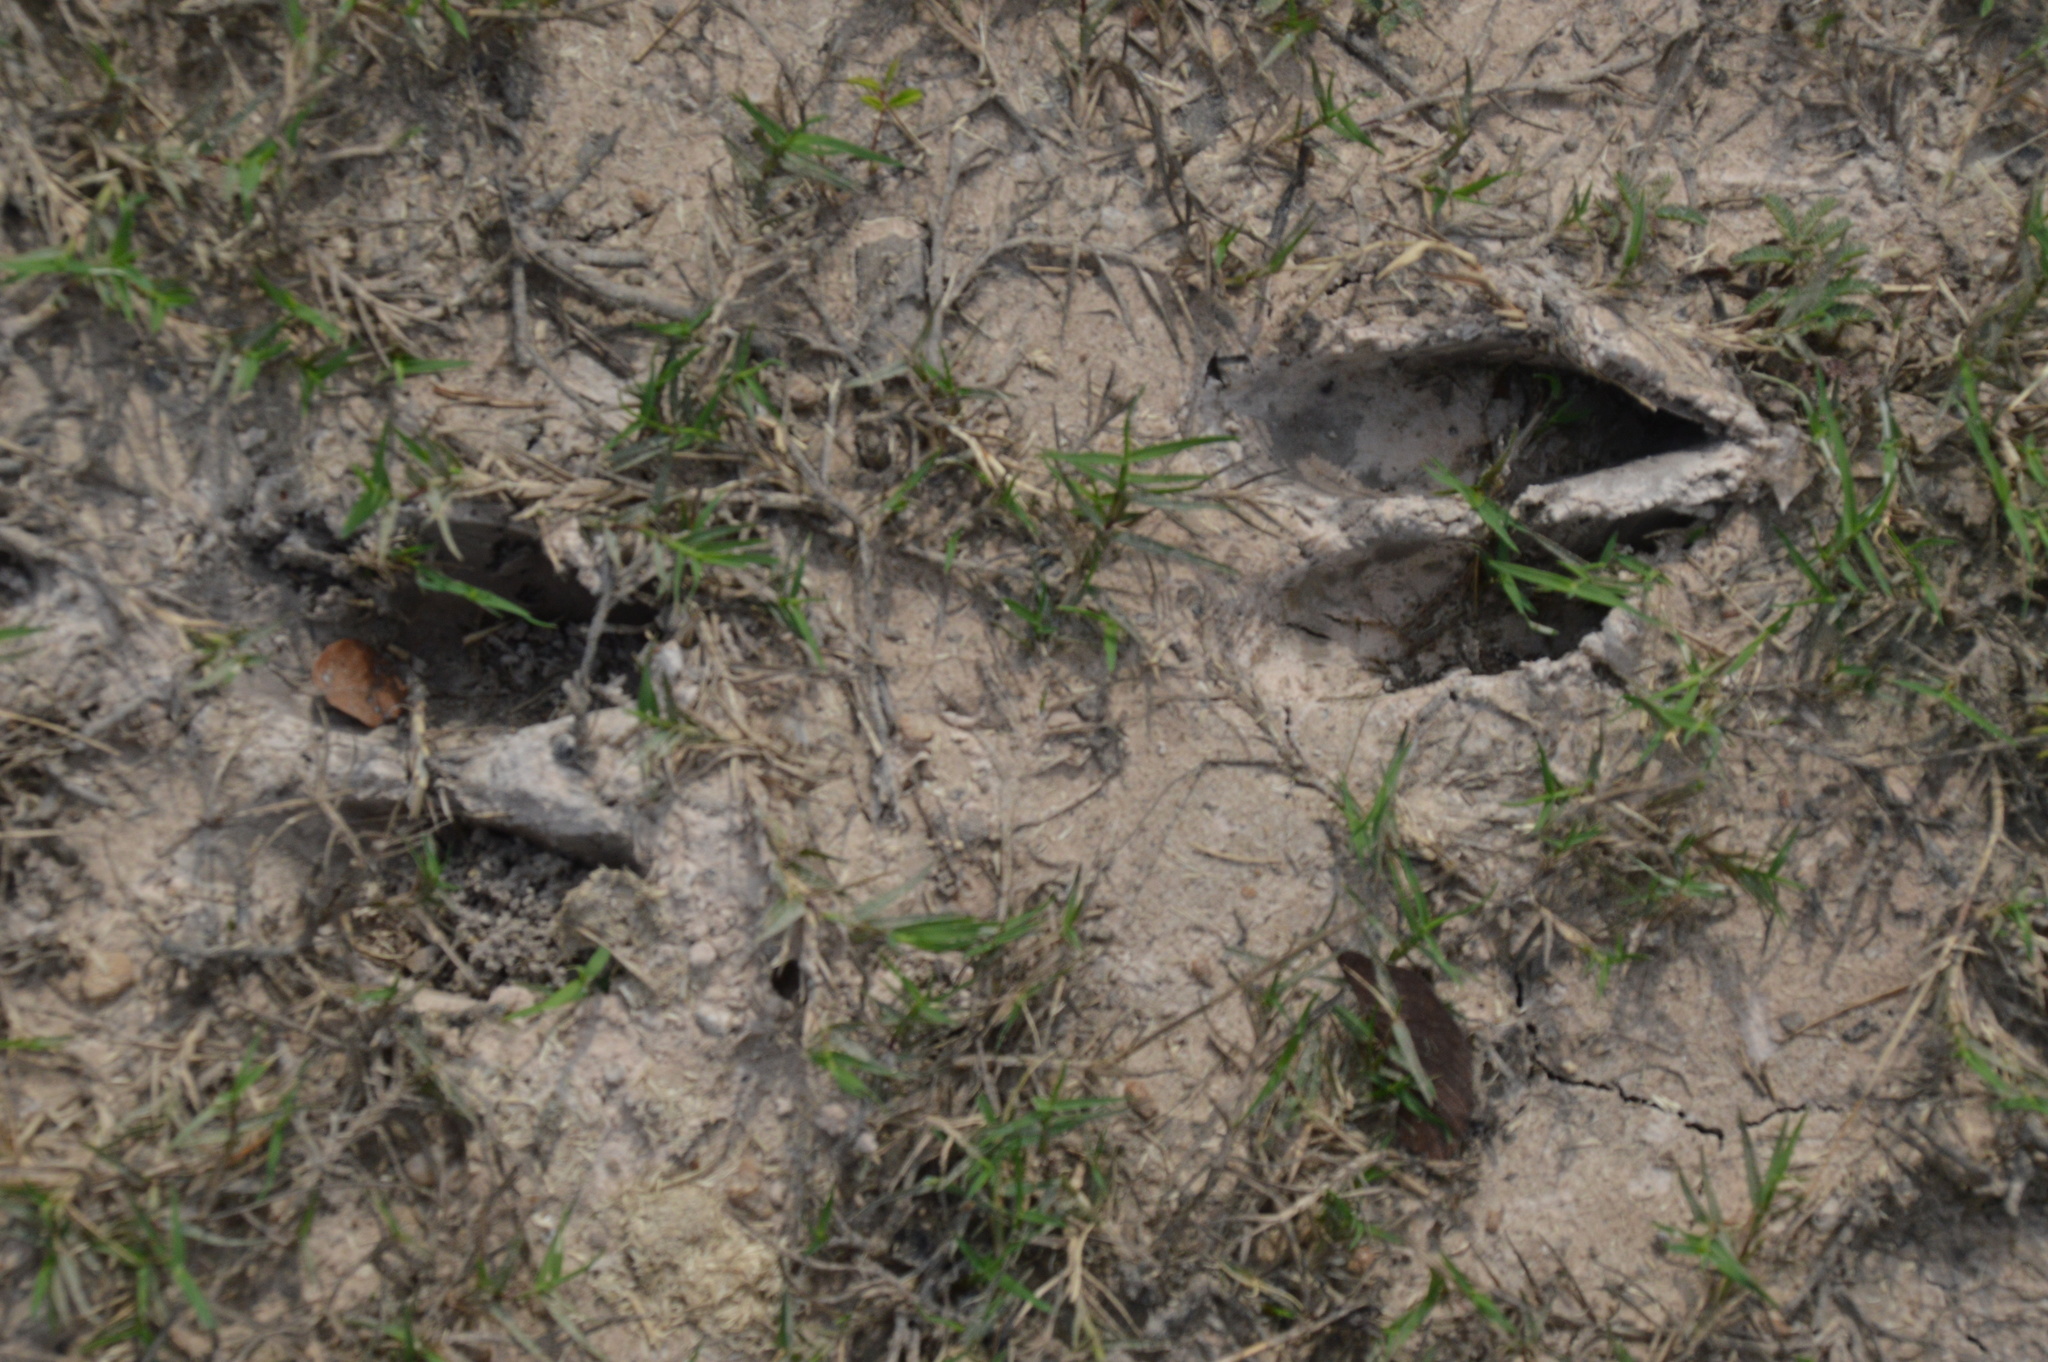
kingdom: Animalia
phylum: Chordata
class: Mammalia
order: Artiodactyla
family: Cervidae
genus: Odocoileus
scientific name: Odocoileus virginianus
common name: White-tailed deer
